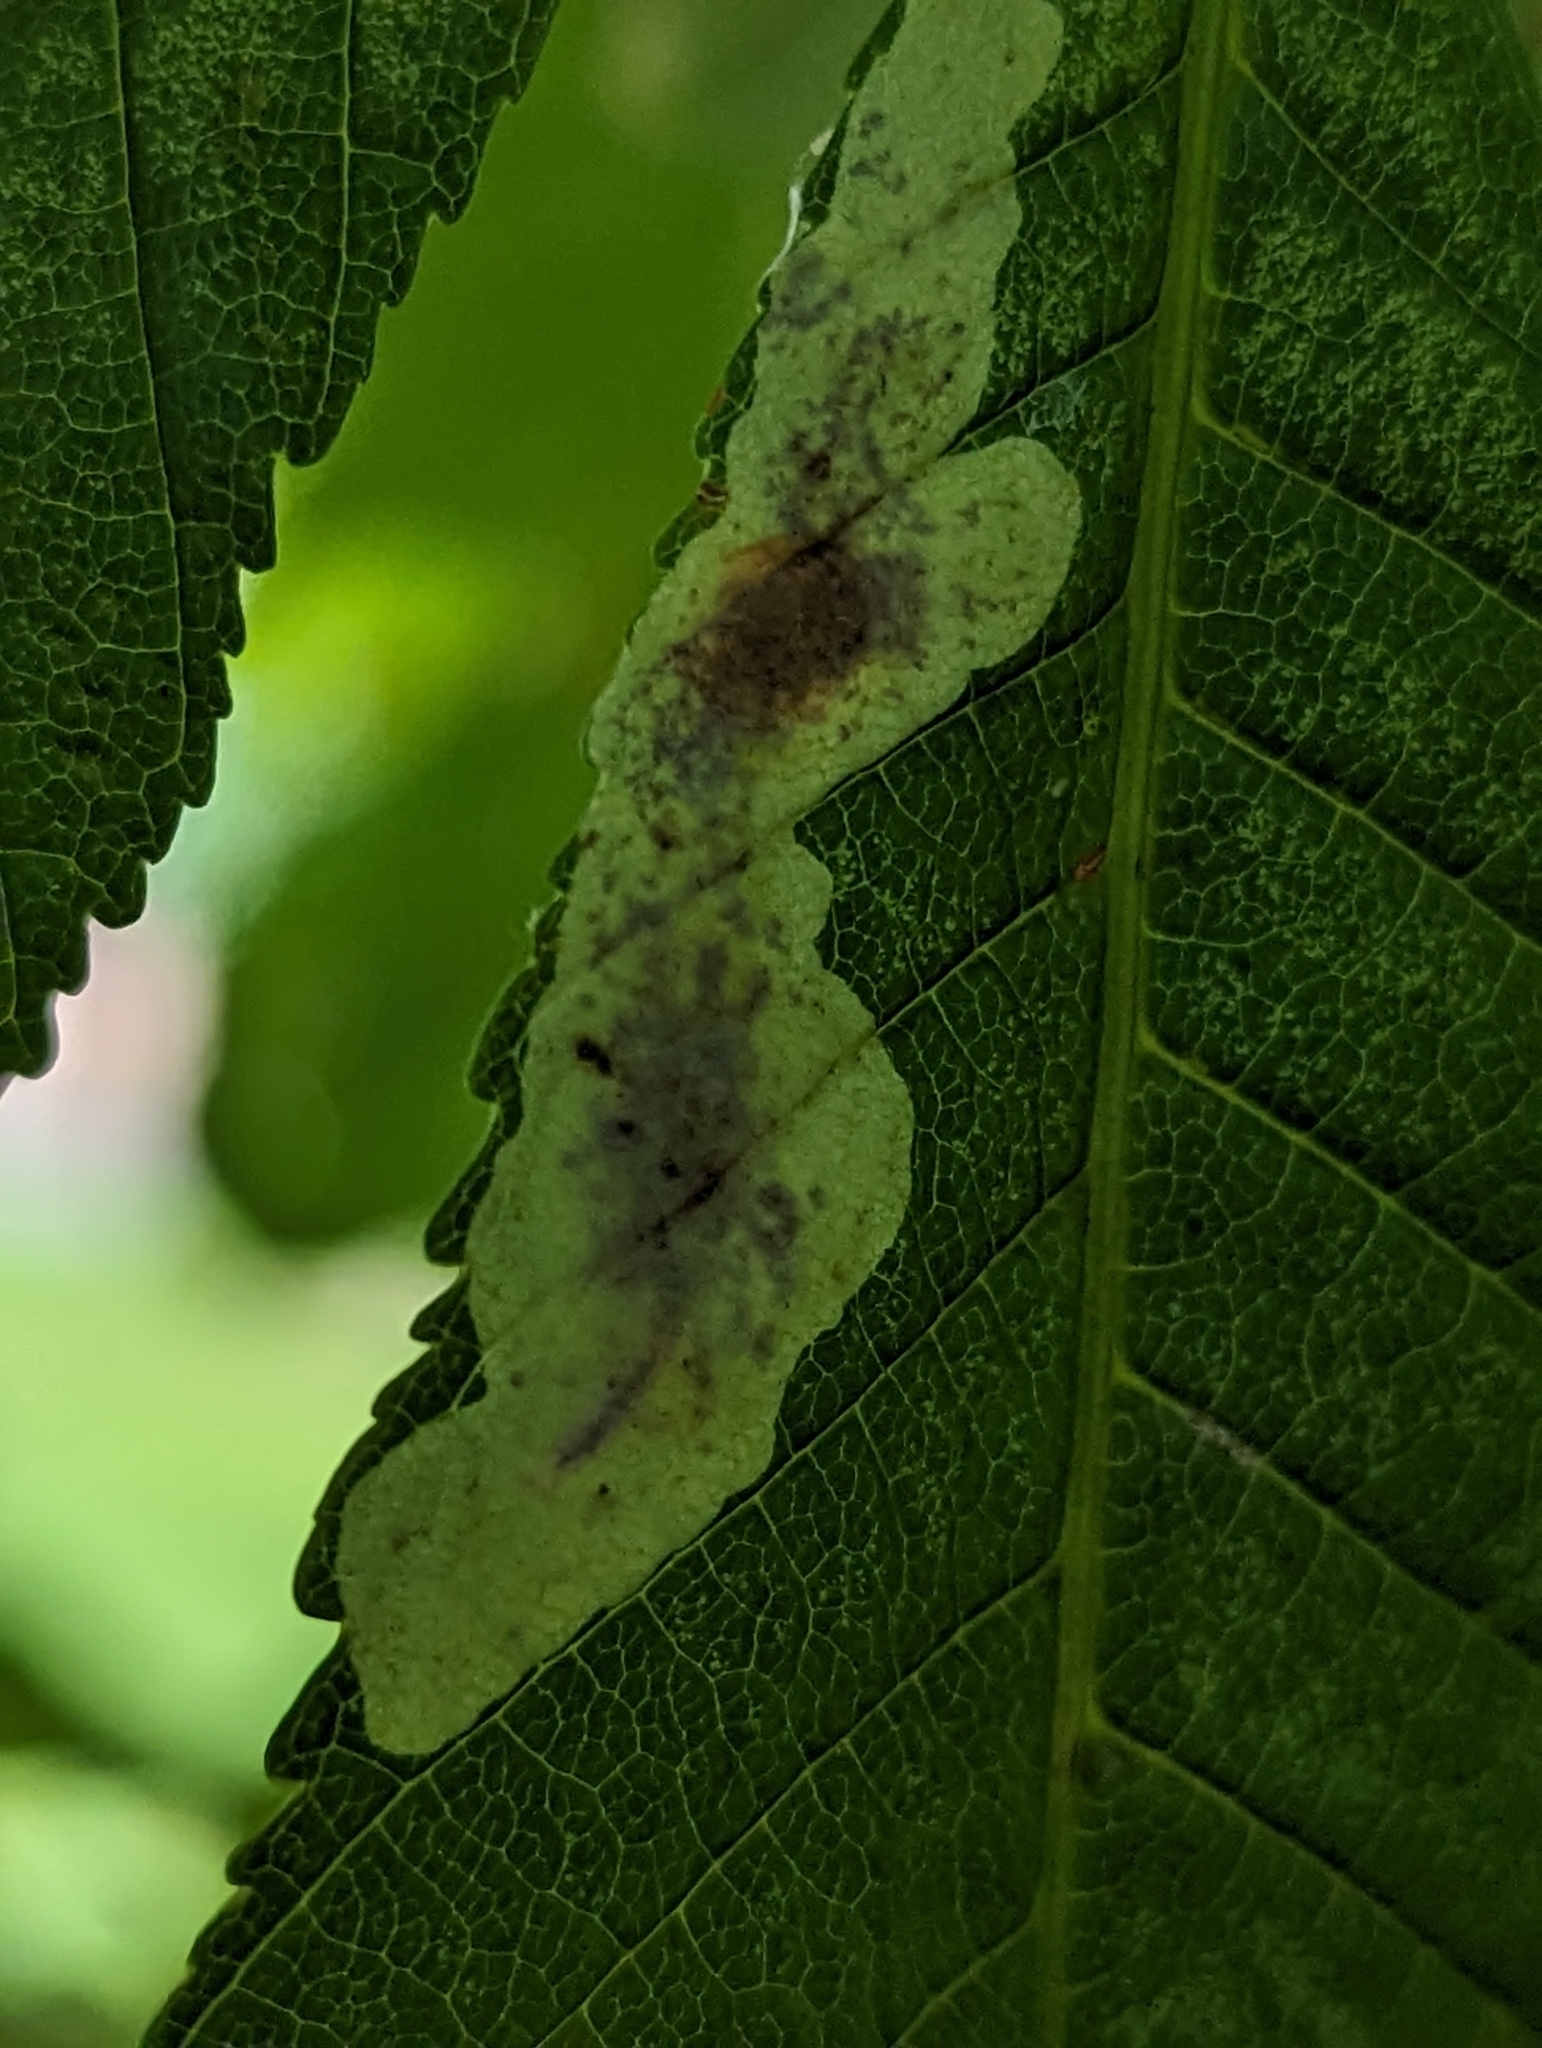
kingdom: Animalia
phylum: Arthropoda
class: Insecta
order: Lepidoptera
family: Gracillariidae
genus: Cameraria
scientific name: Cameraria ohridella
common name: Horse-chestnut leaf-miner
